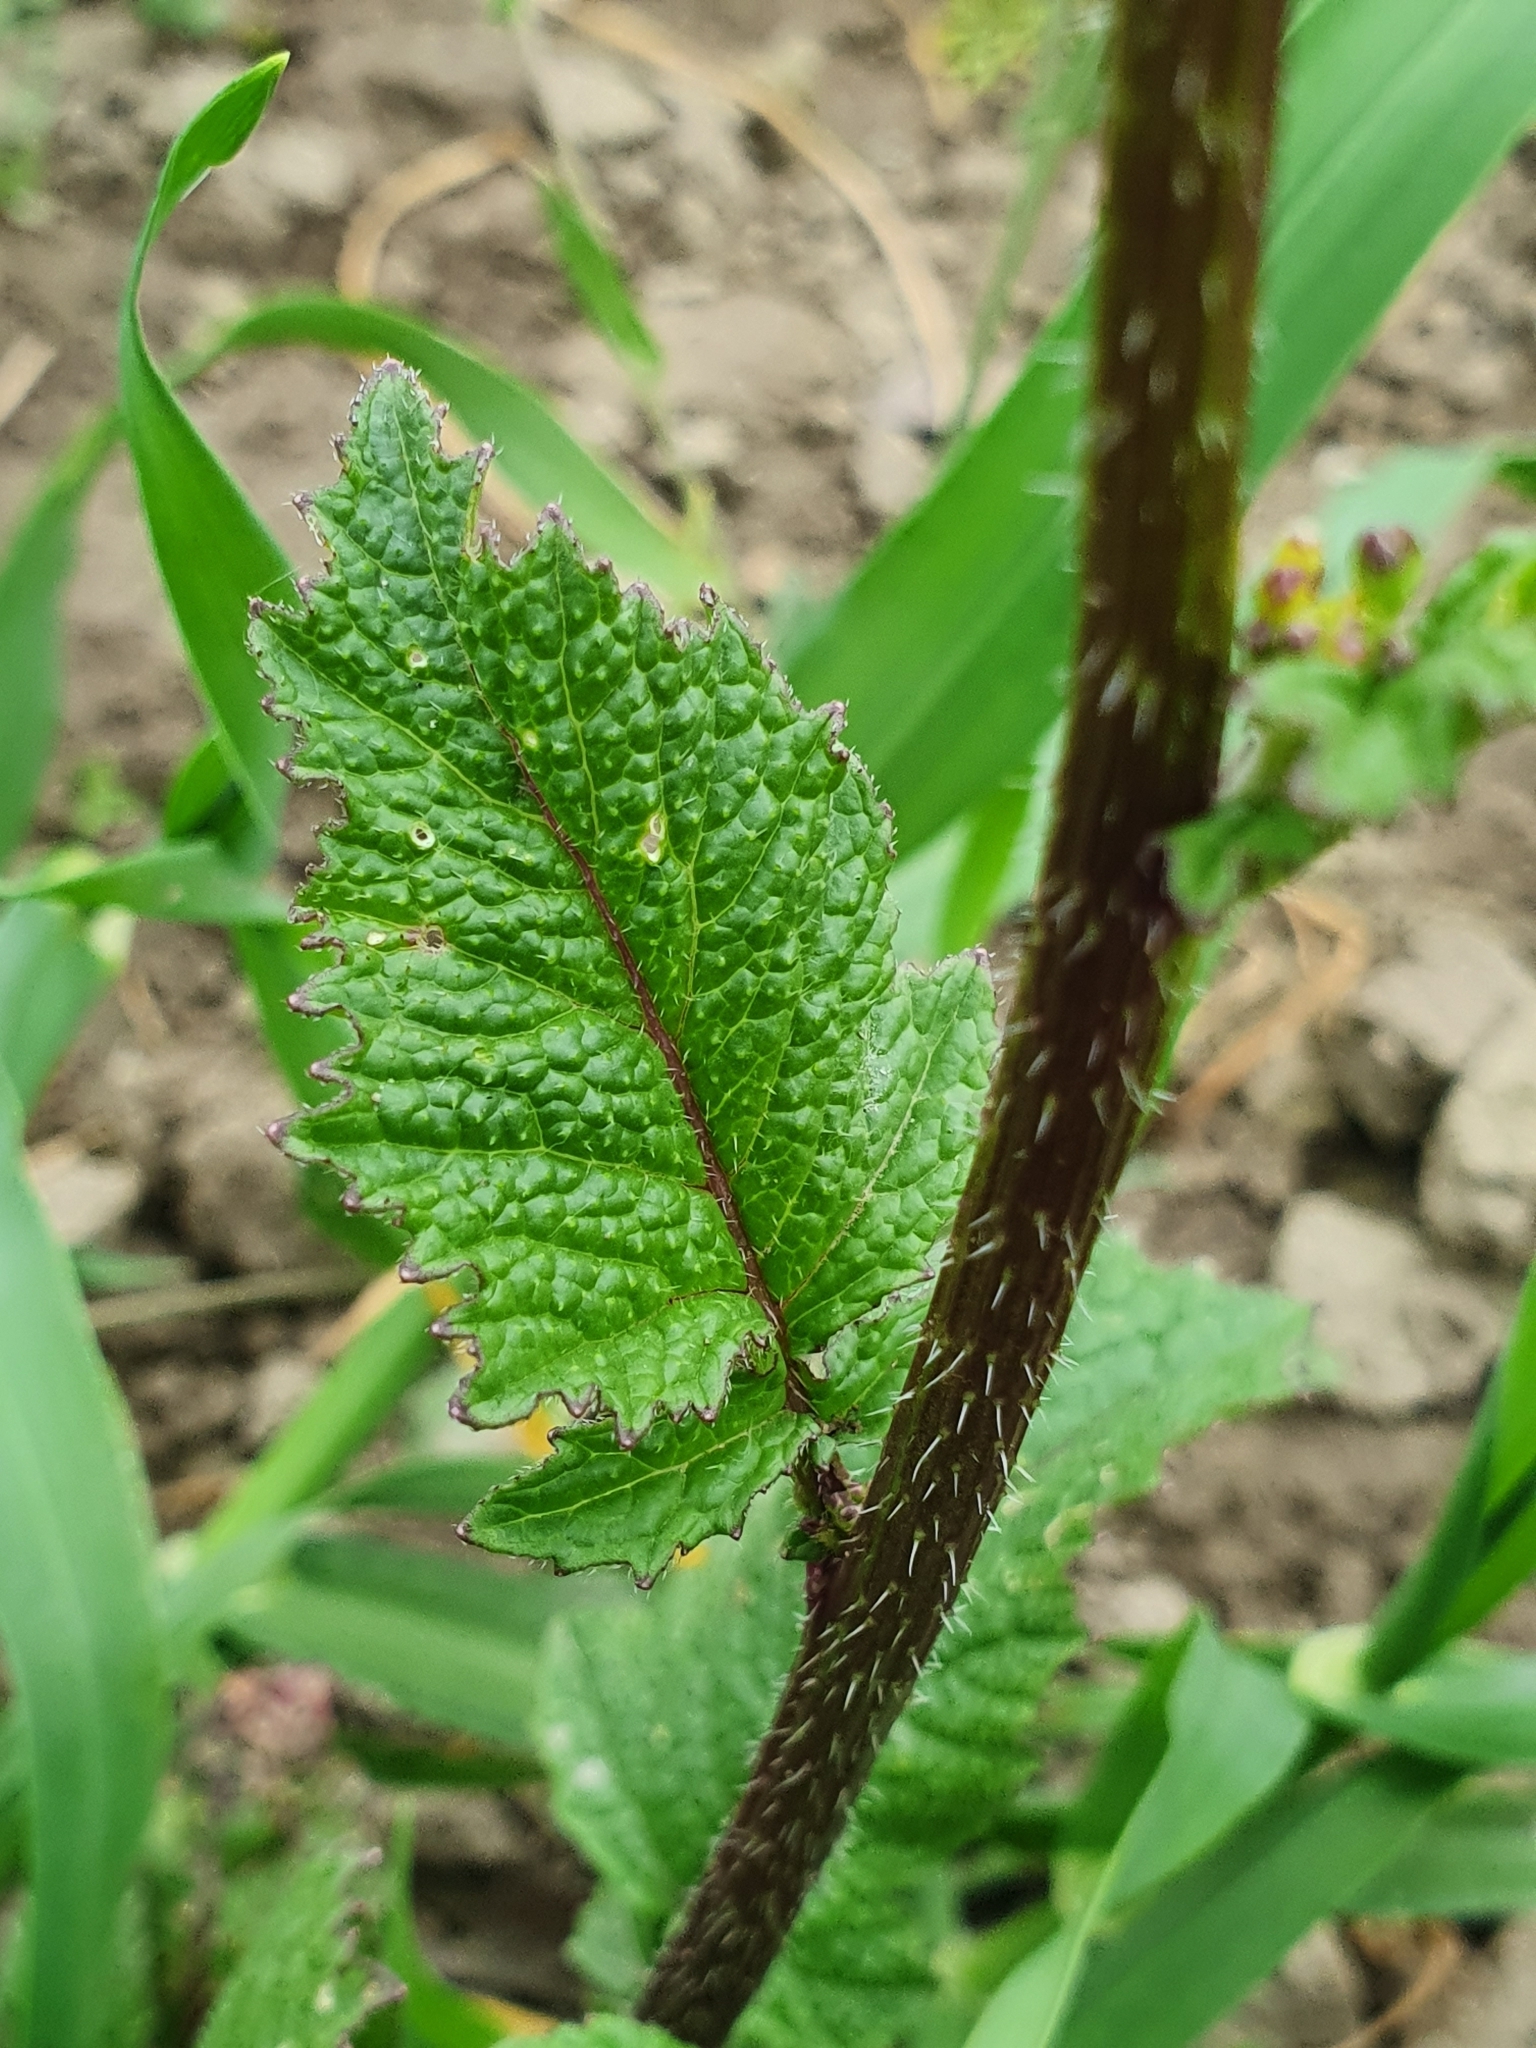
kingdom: Plantae
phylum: Tracheophyta
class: Magnoliopsida
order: Brassicales
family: Brassicaceae
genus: Sinapis
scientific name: Sinapis arvensis
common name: Charlock
